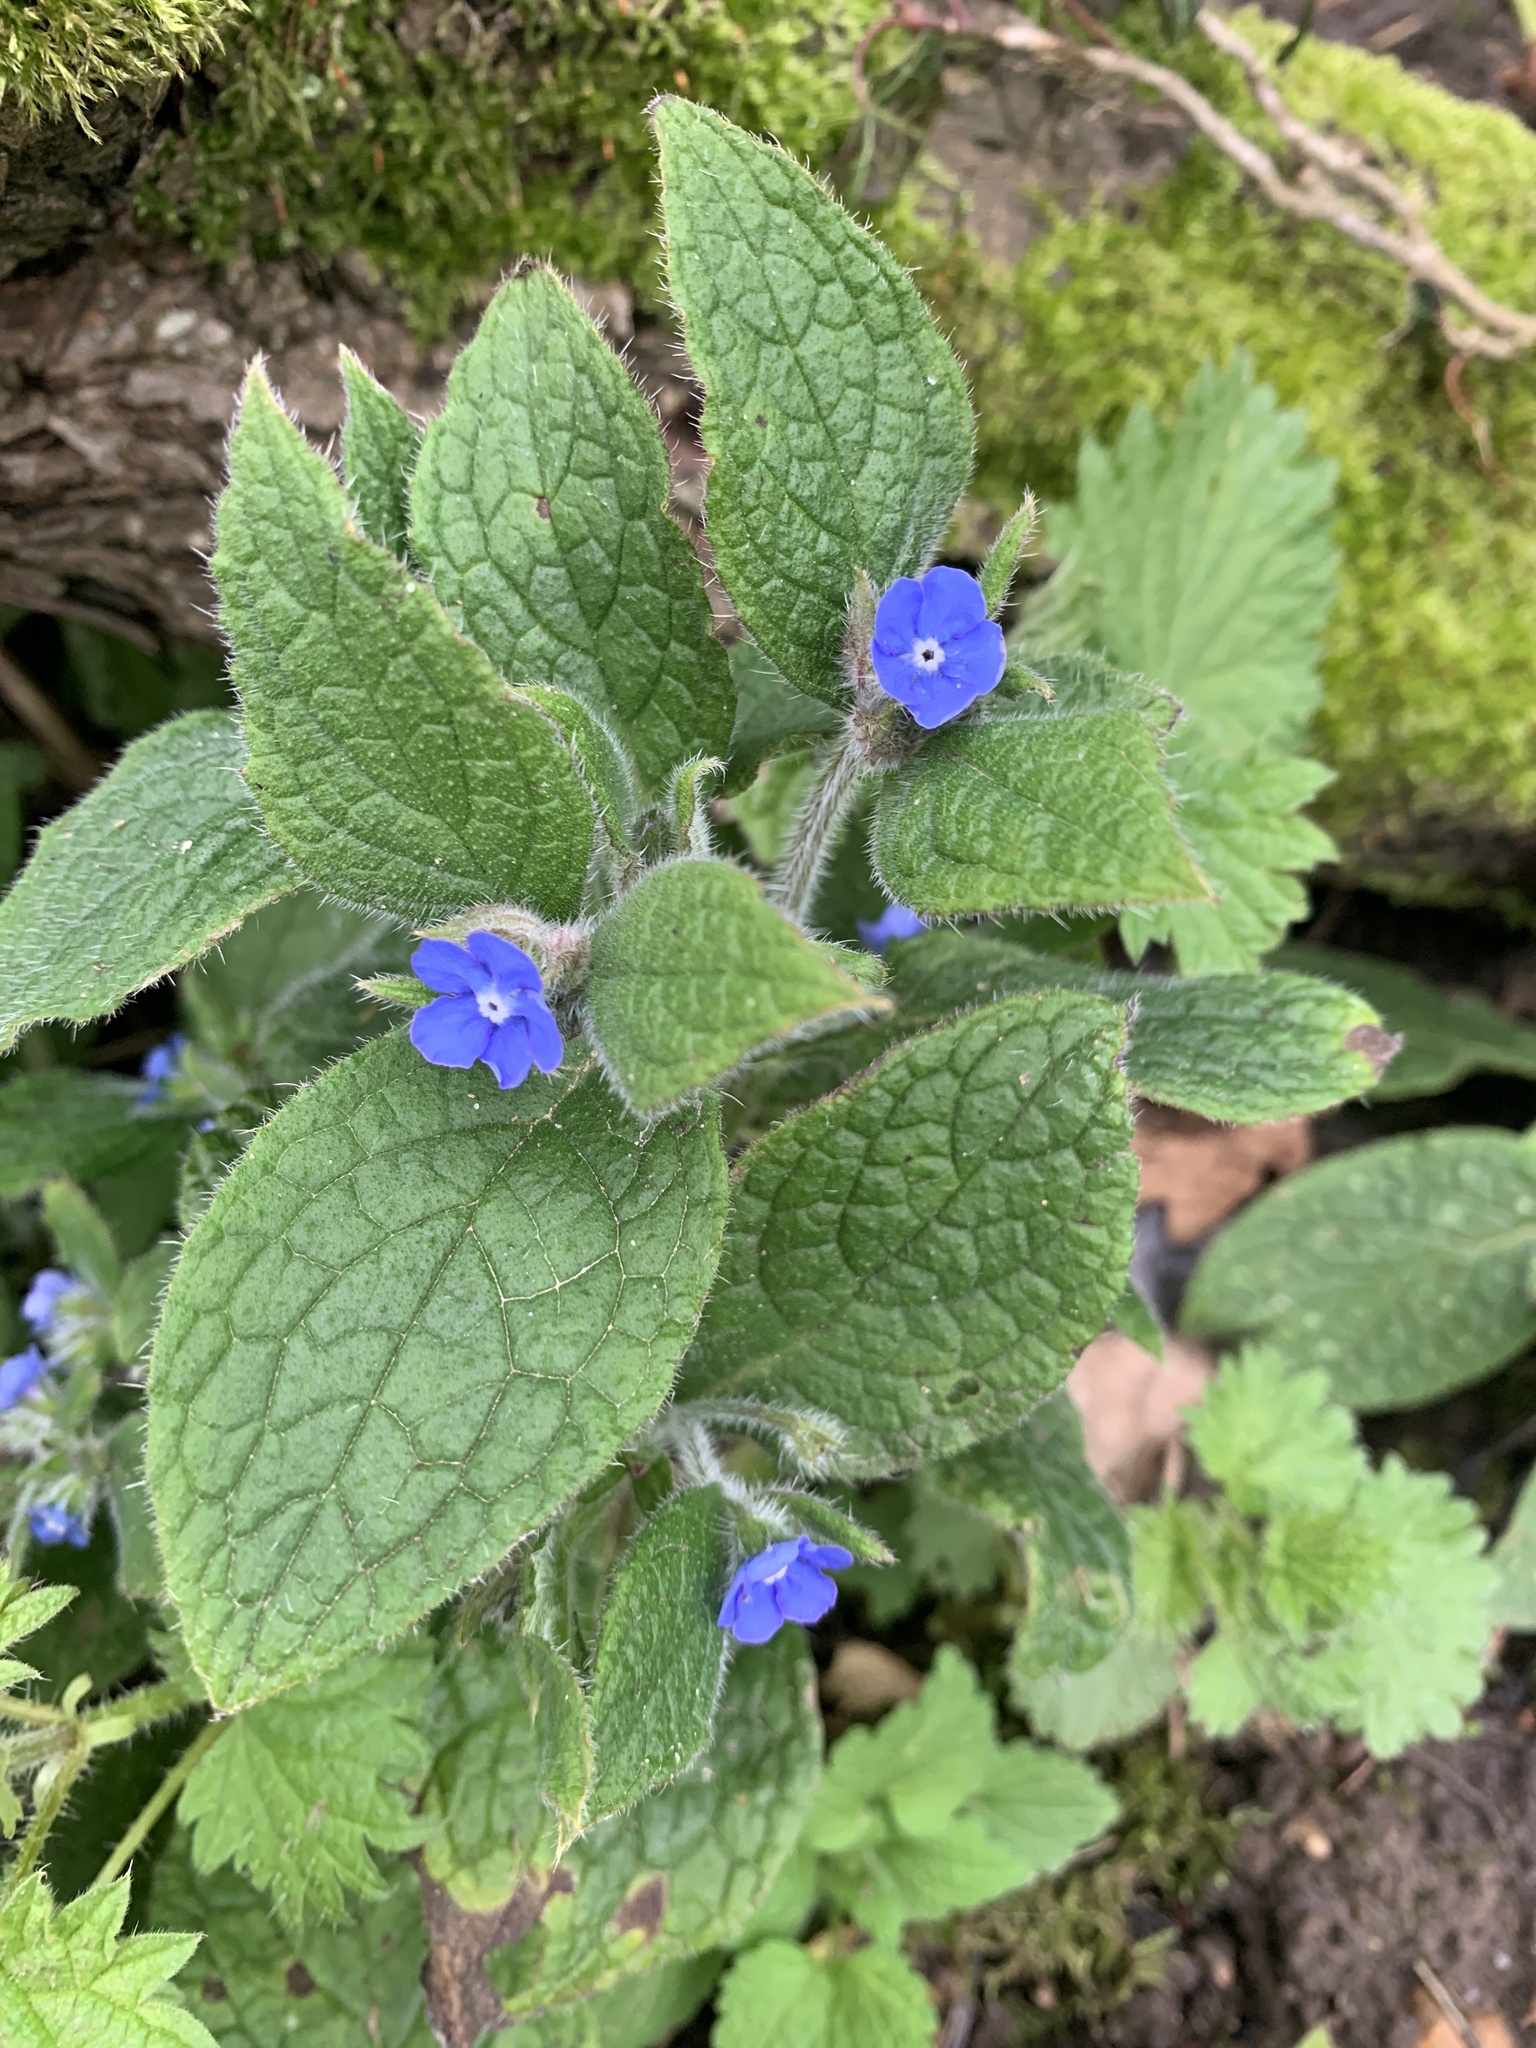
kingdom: Plantae
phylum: Tracheophyta
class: Magnoliopsida
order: Boraginales
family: Boraginaceae
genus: Pentaglottis
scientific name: Pentaglottis sempervirens
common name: Green alkanet
